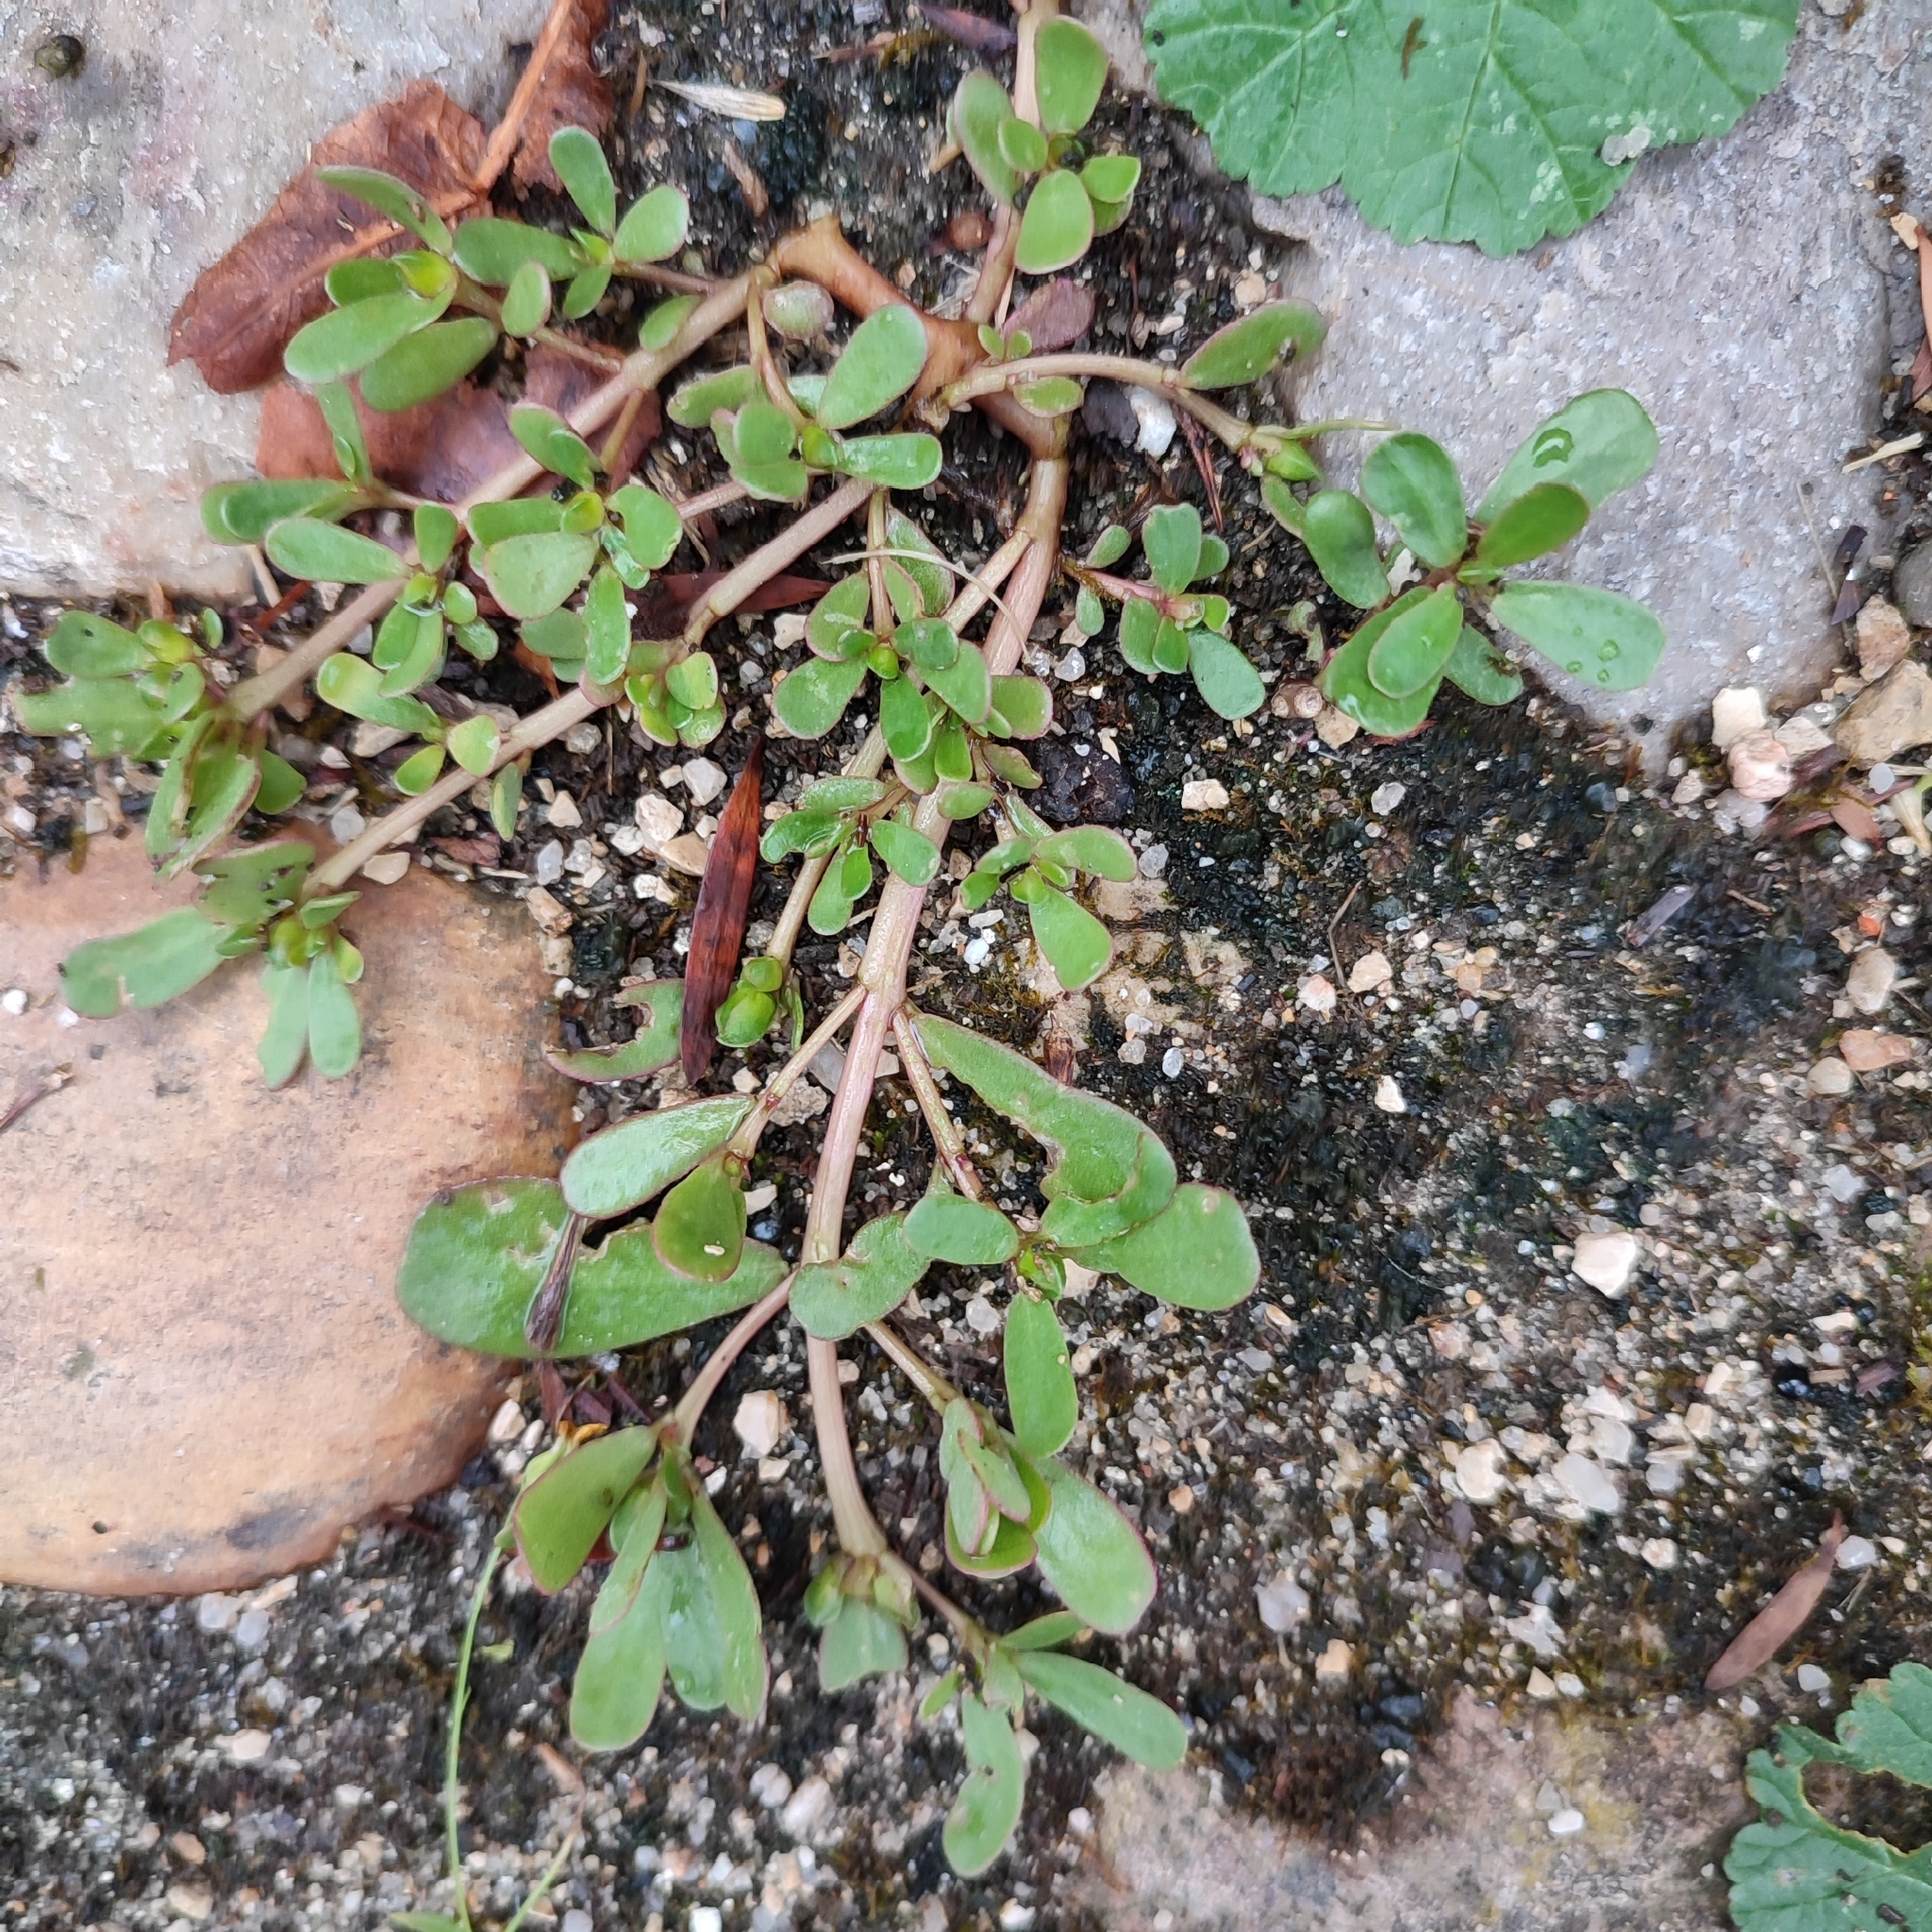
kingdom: Plantae
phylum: Tracheophyta
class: Magnoliopsida
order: Caryophyllales
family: Portulacaceae
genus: Portulaca
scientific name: Portulaca oleracea
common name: Common purslane
